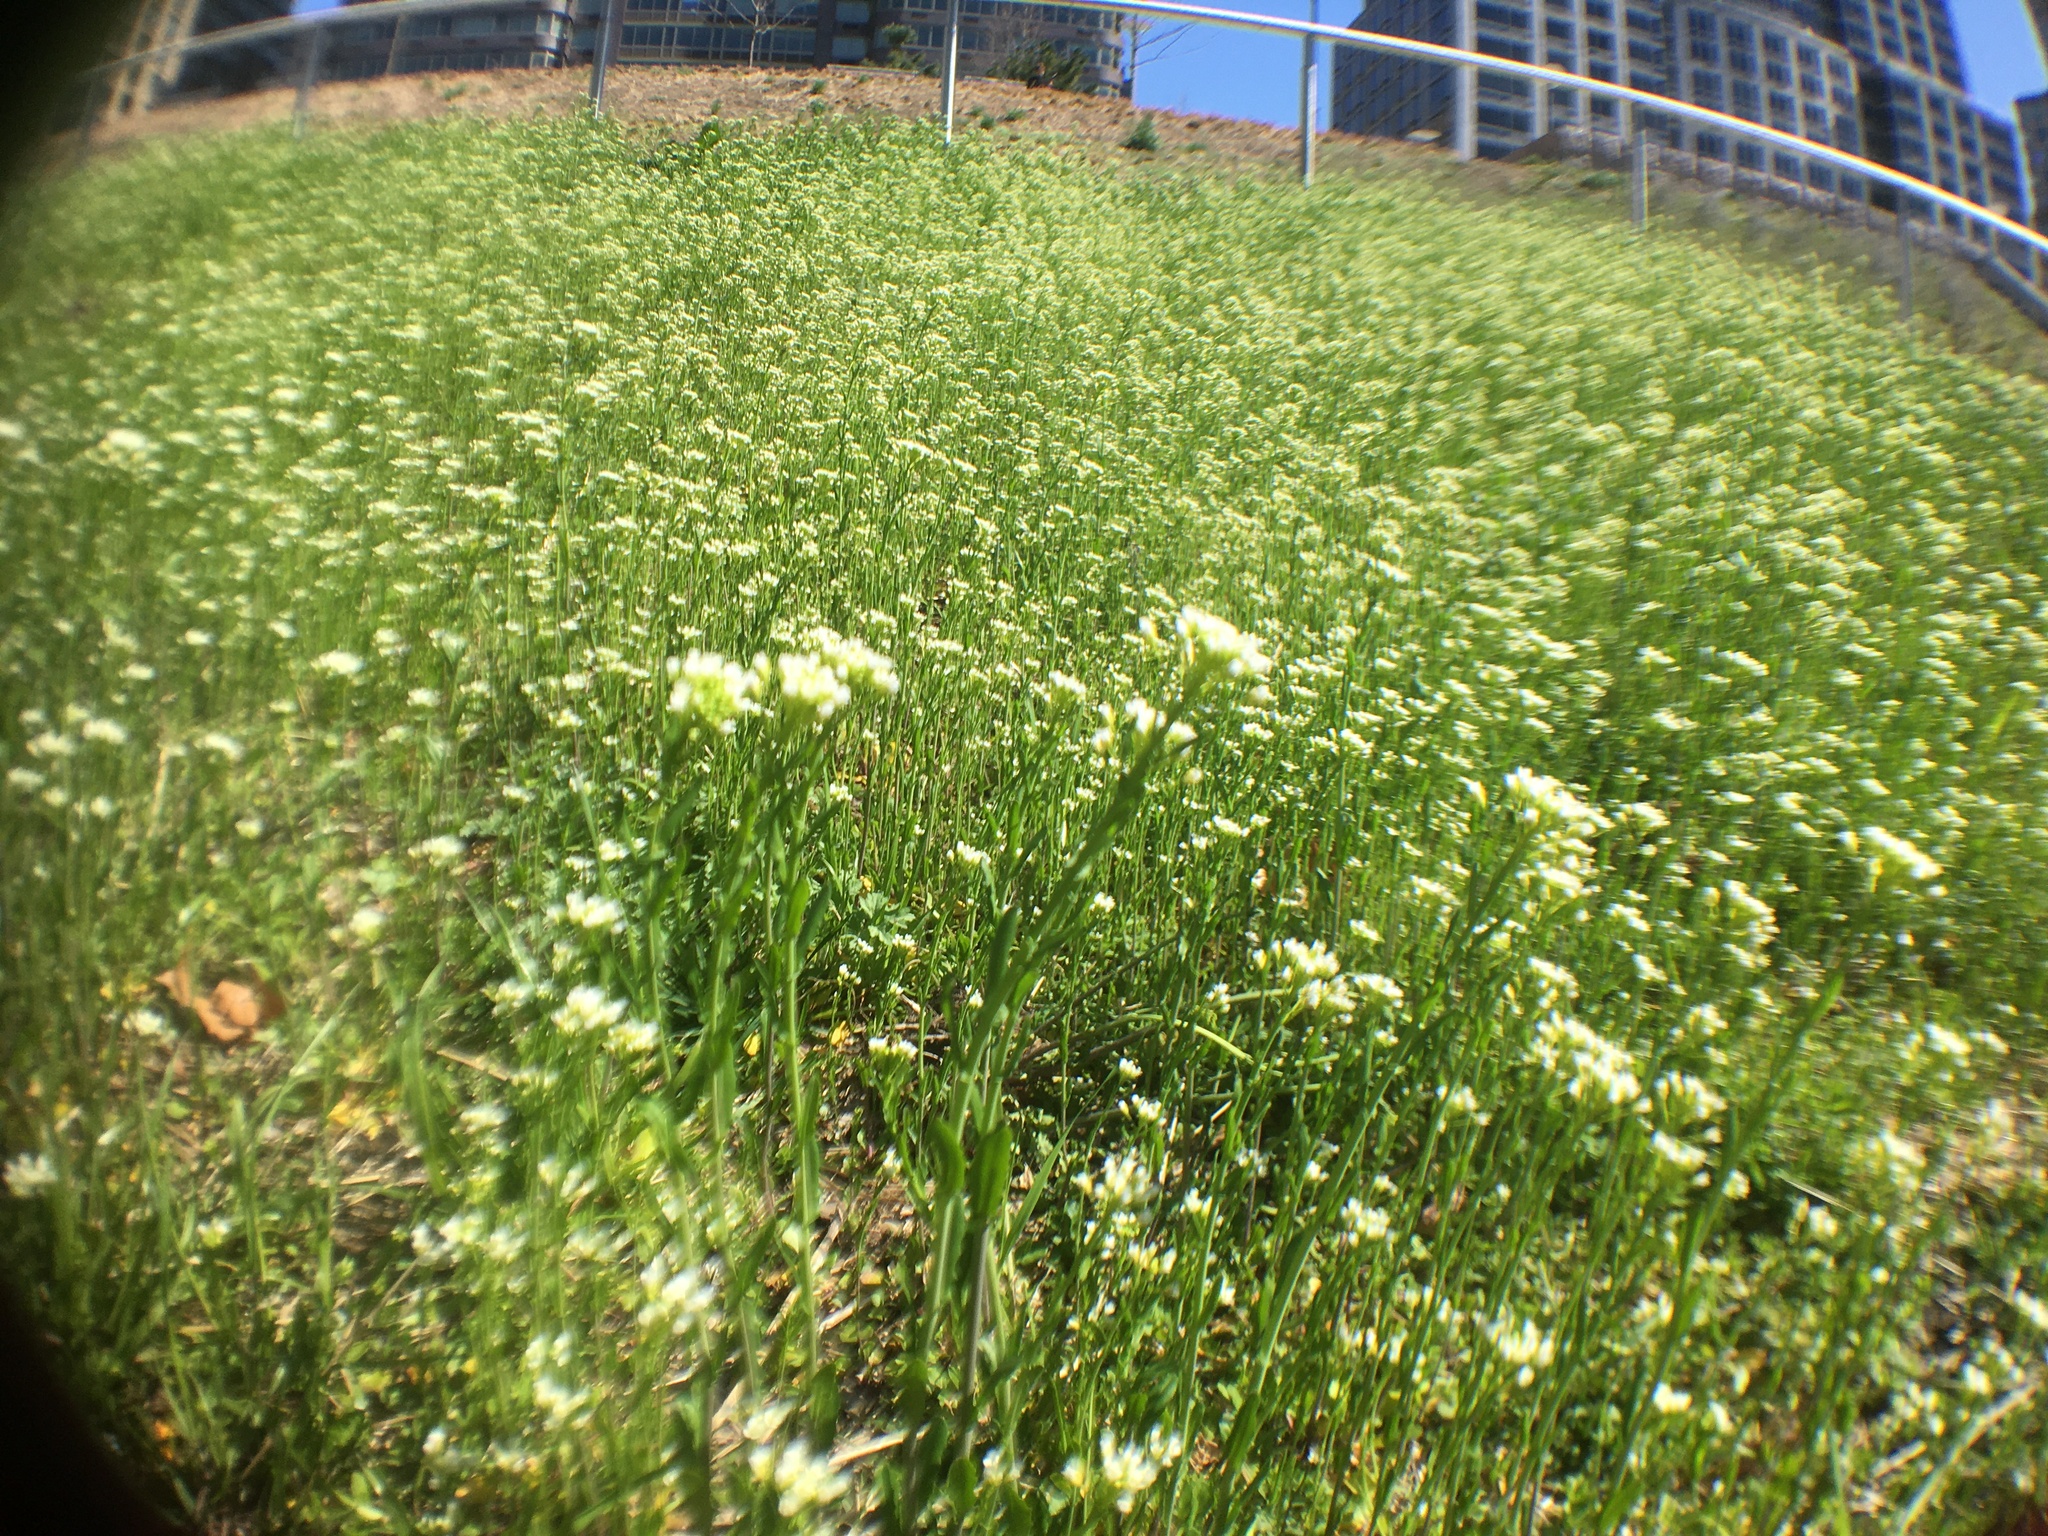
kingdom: Plantae
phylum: Tracheophyta
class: Magnoliopsida
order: Brassicales
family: Brassicaceae
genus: Mummenhoffia
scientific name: Mummenhoffia alliacea
